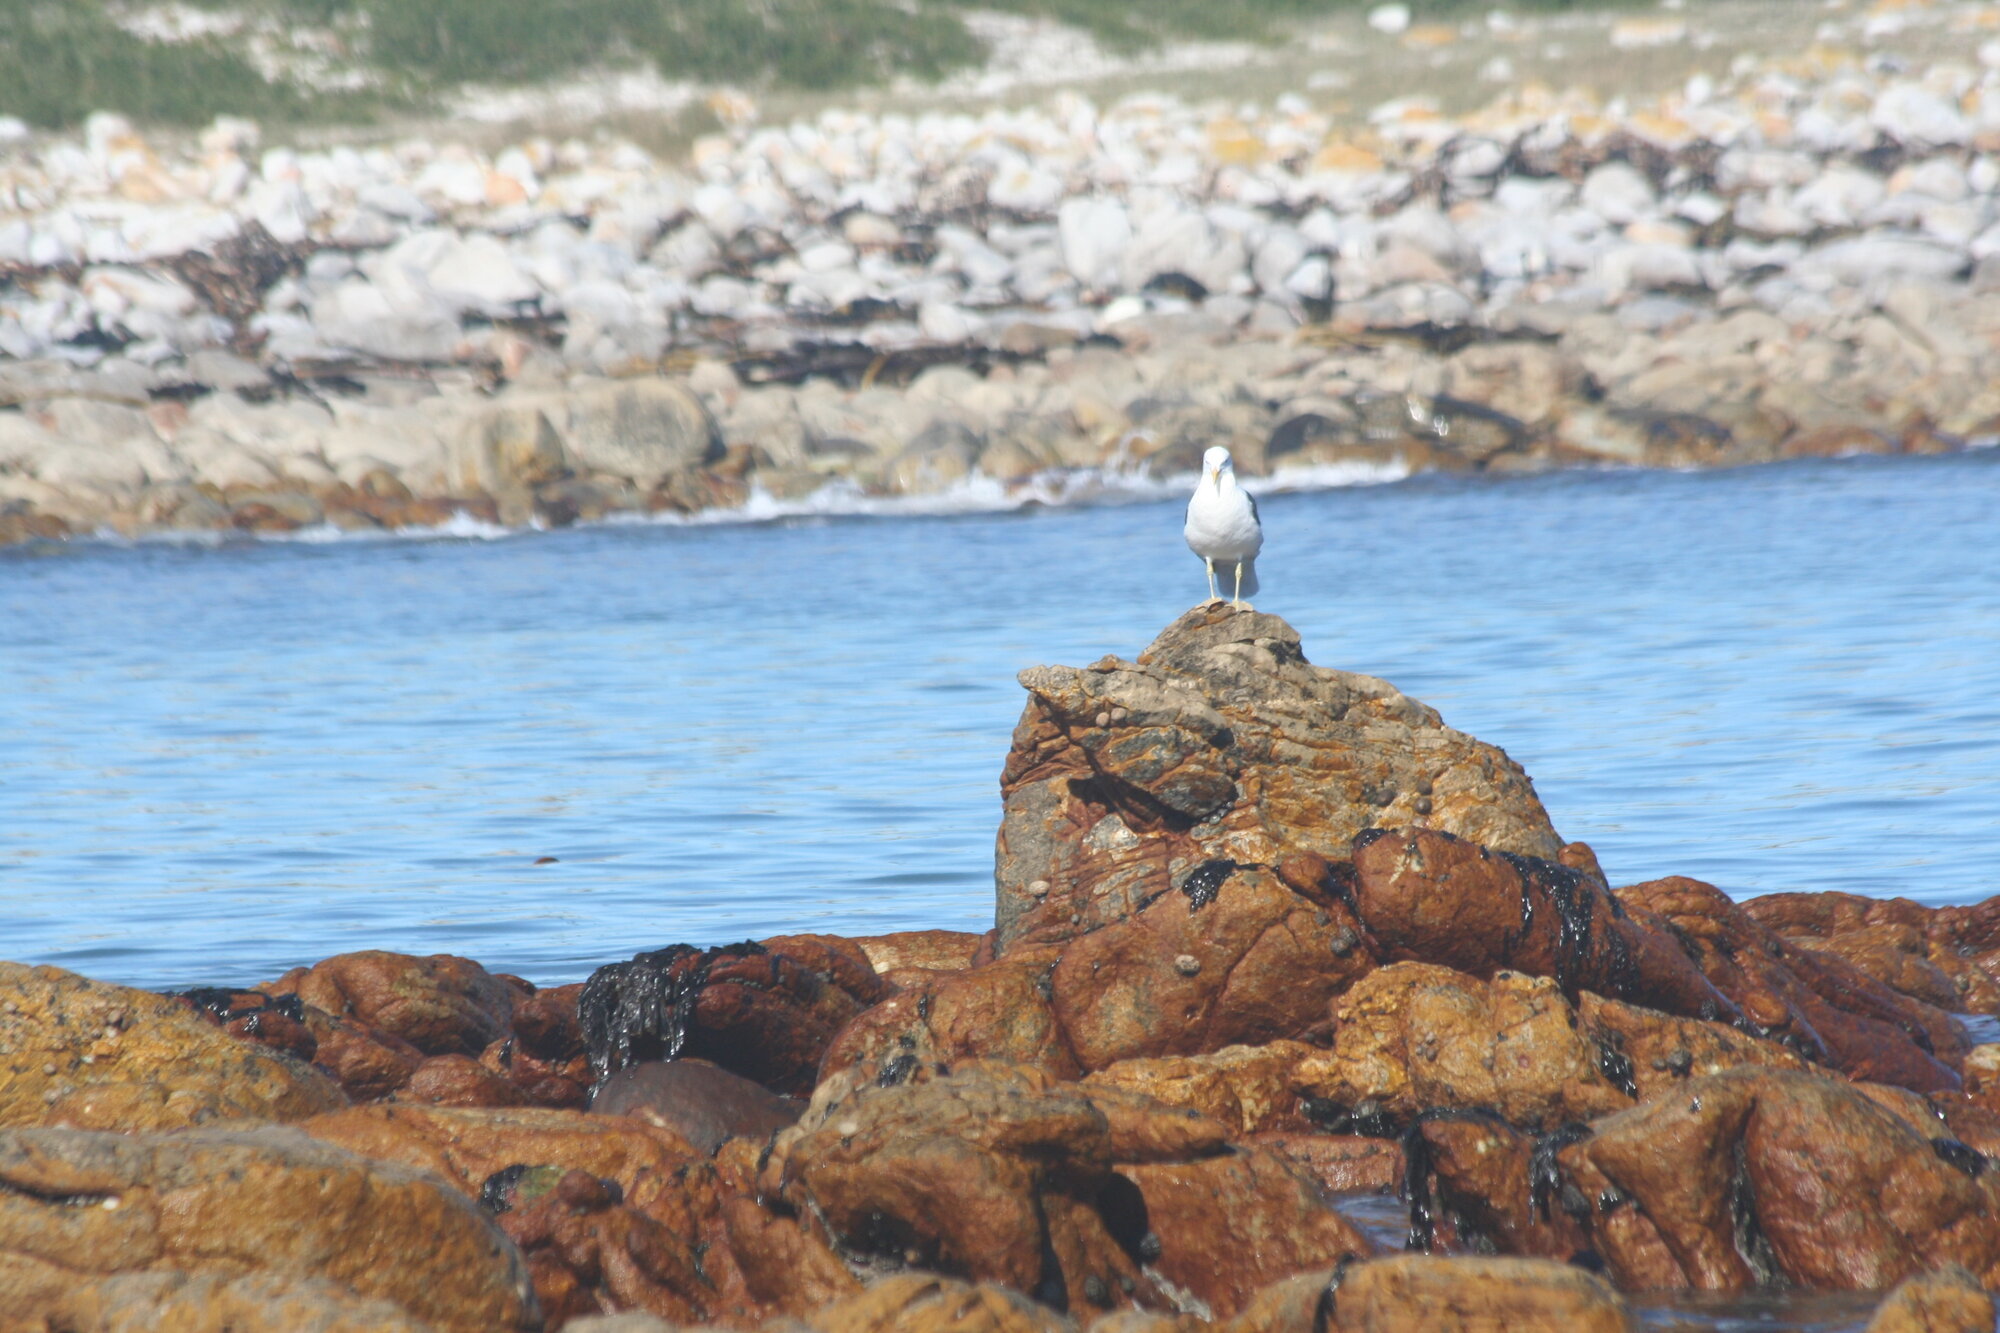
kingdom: Animalia
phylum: Chordata
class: Aves
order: Charadriiformes
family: Laridae
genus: Larus
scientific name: Larus dominicanus
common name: Kelp gull
